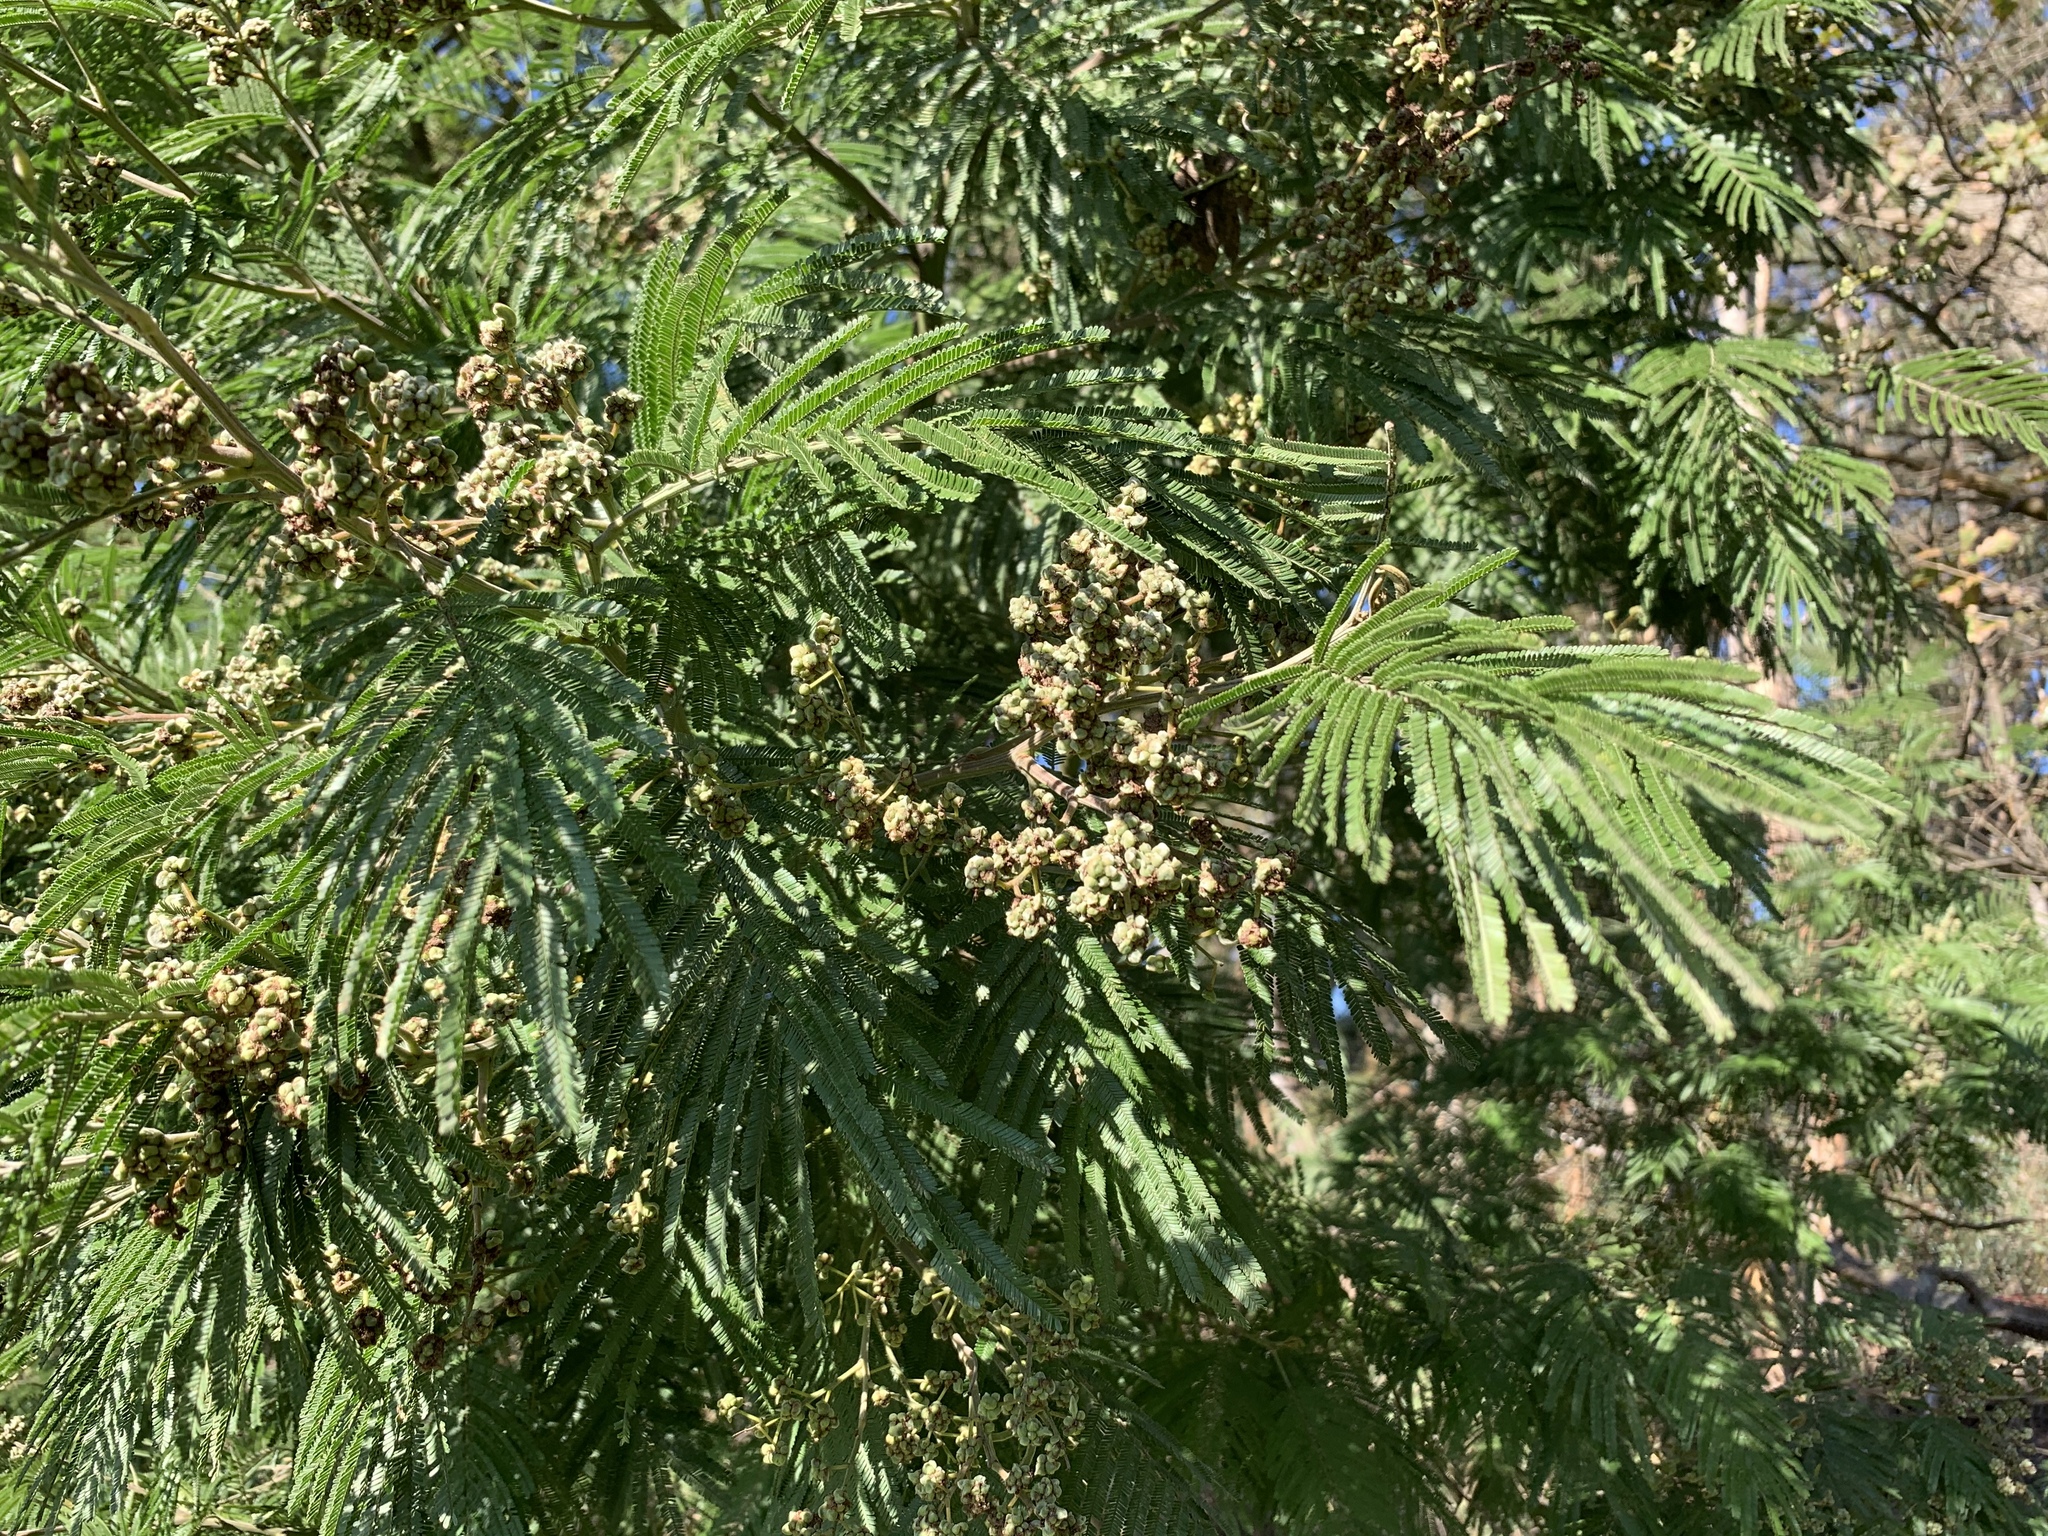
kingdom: Animalia
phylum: Arthropoda
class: Insecta
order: Diptera
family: Cecidomyiidae
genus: Dasineura
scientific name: Dasineura rubiformis
